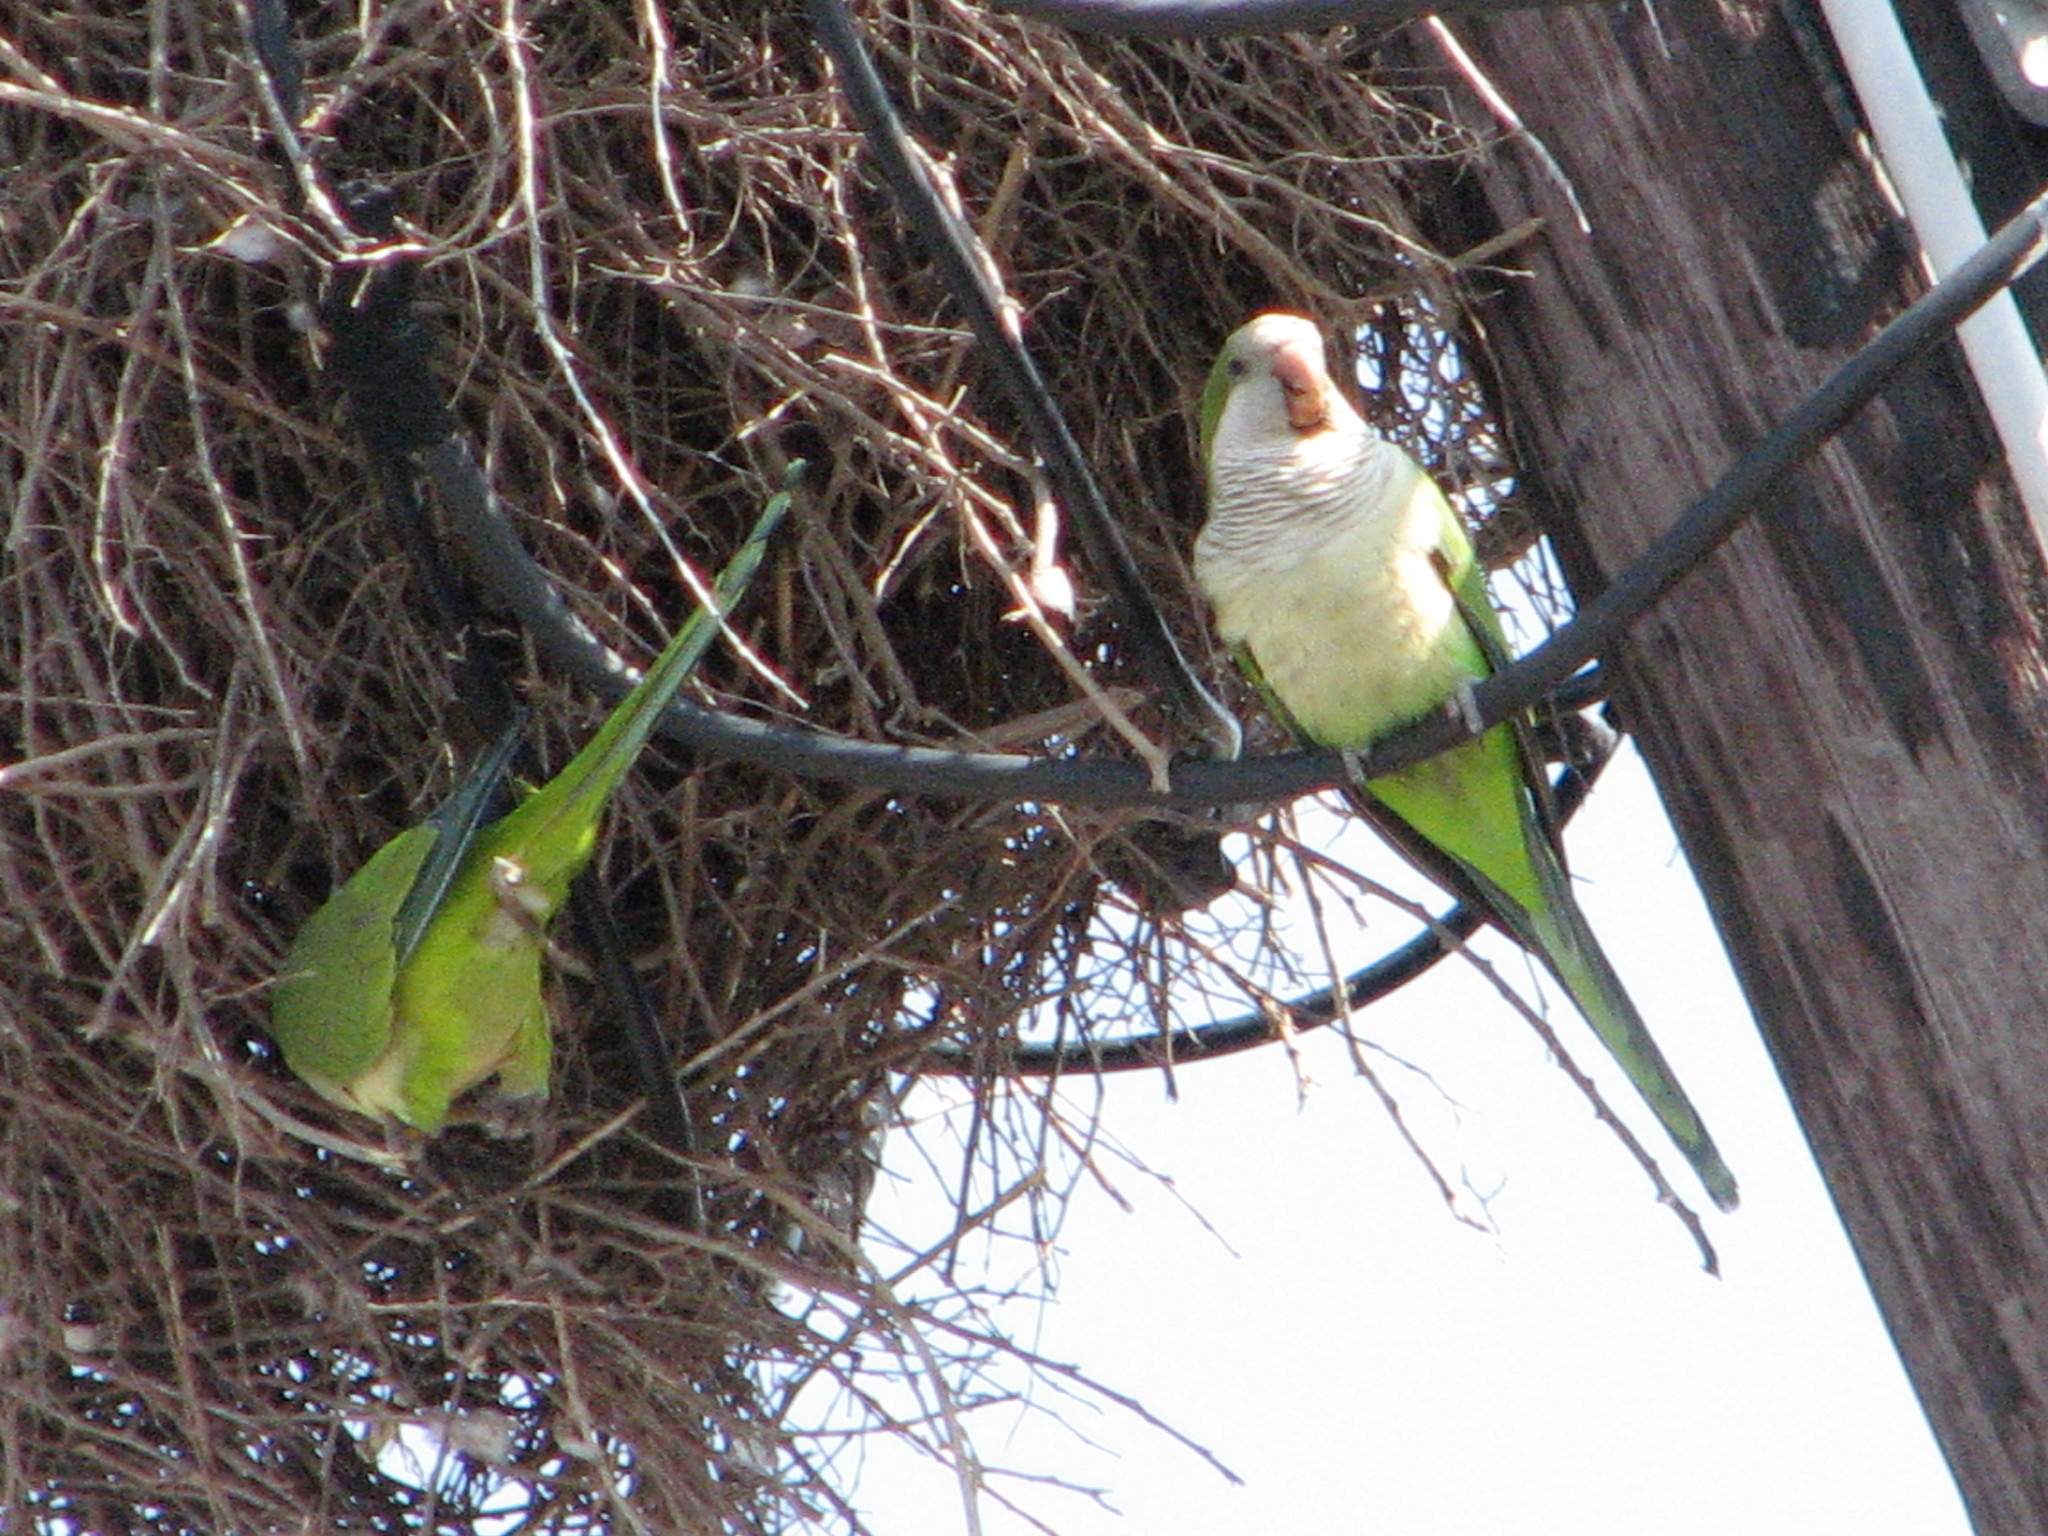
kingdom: Animalia
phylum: Chordata
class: Aves
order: Psittaciformes
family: Psittacidae
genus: Myiopsitta
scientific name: Myiopsitta monachus
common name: Monk parakeet
